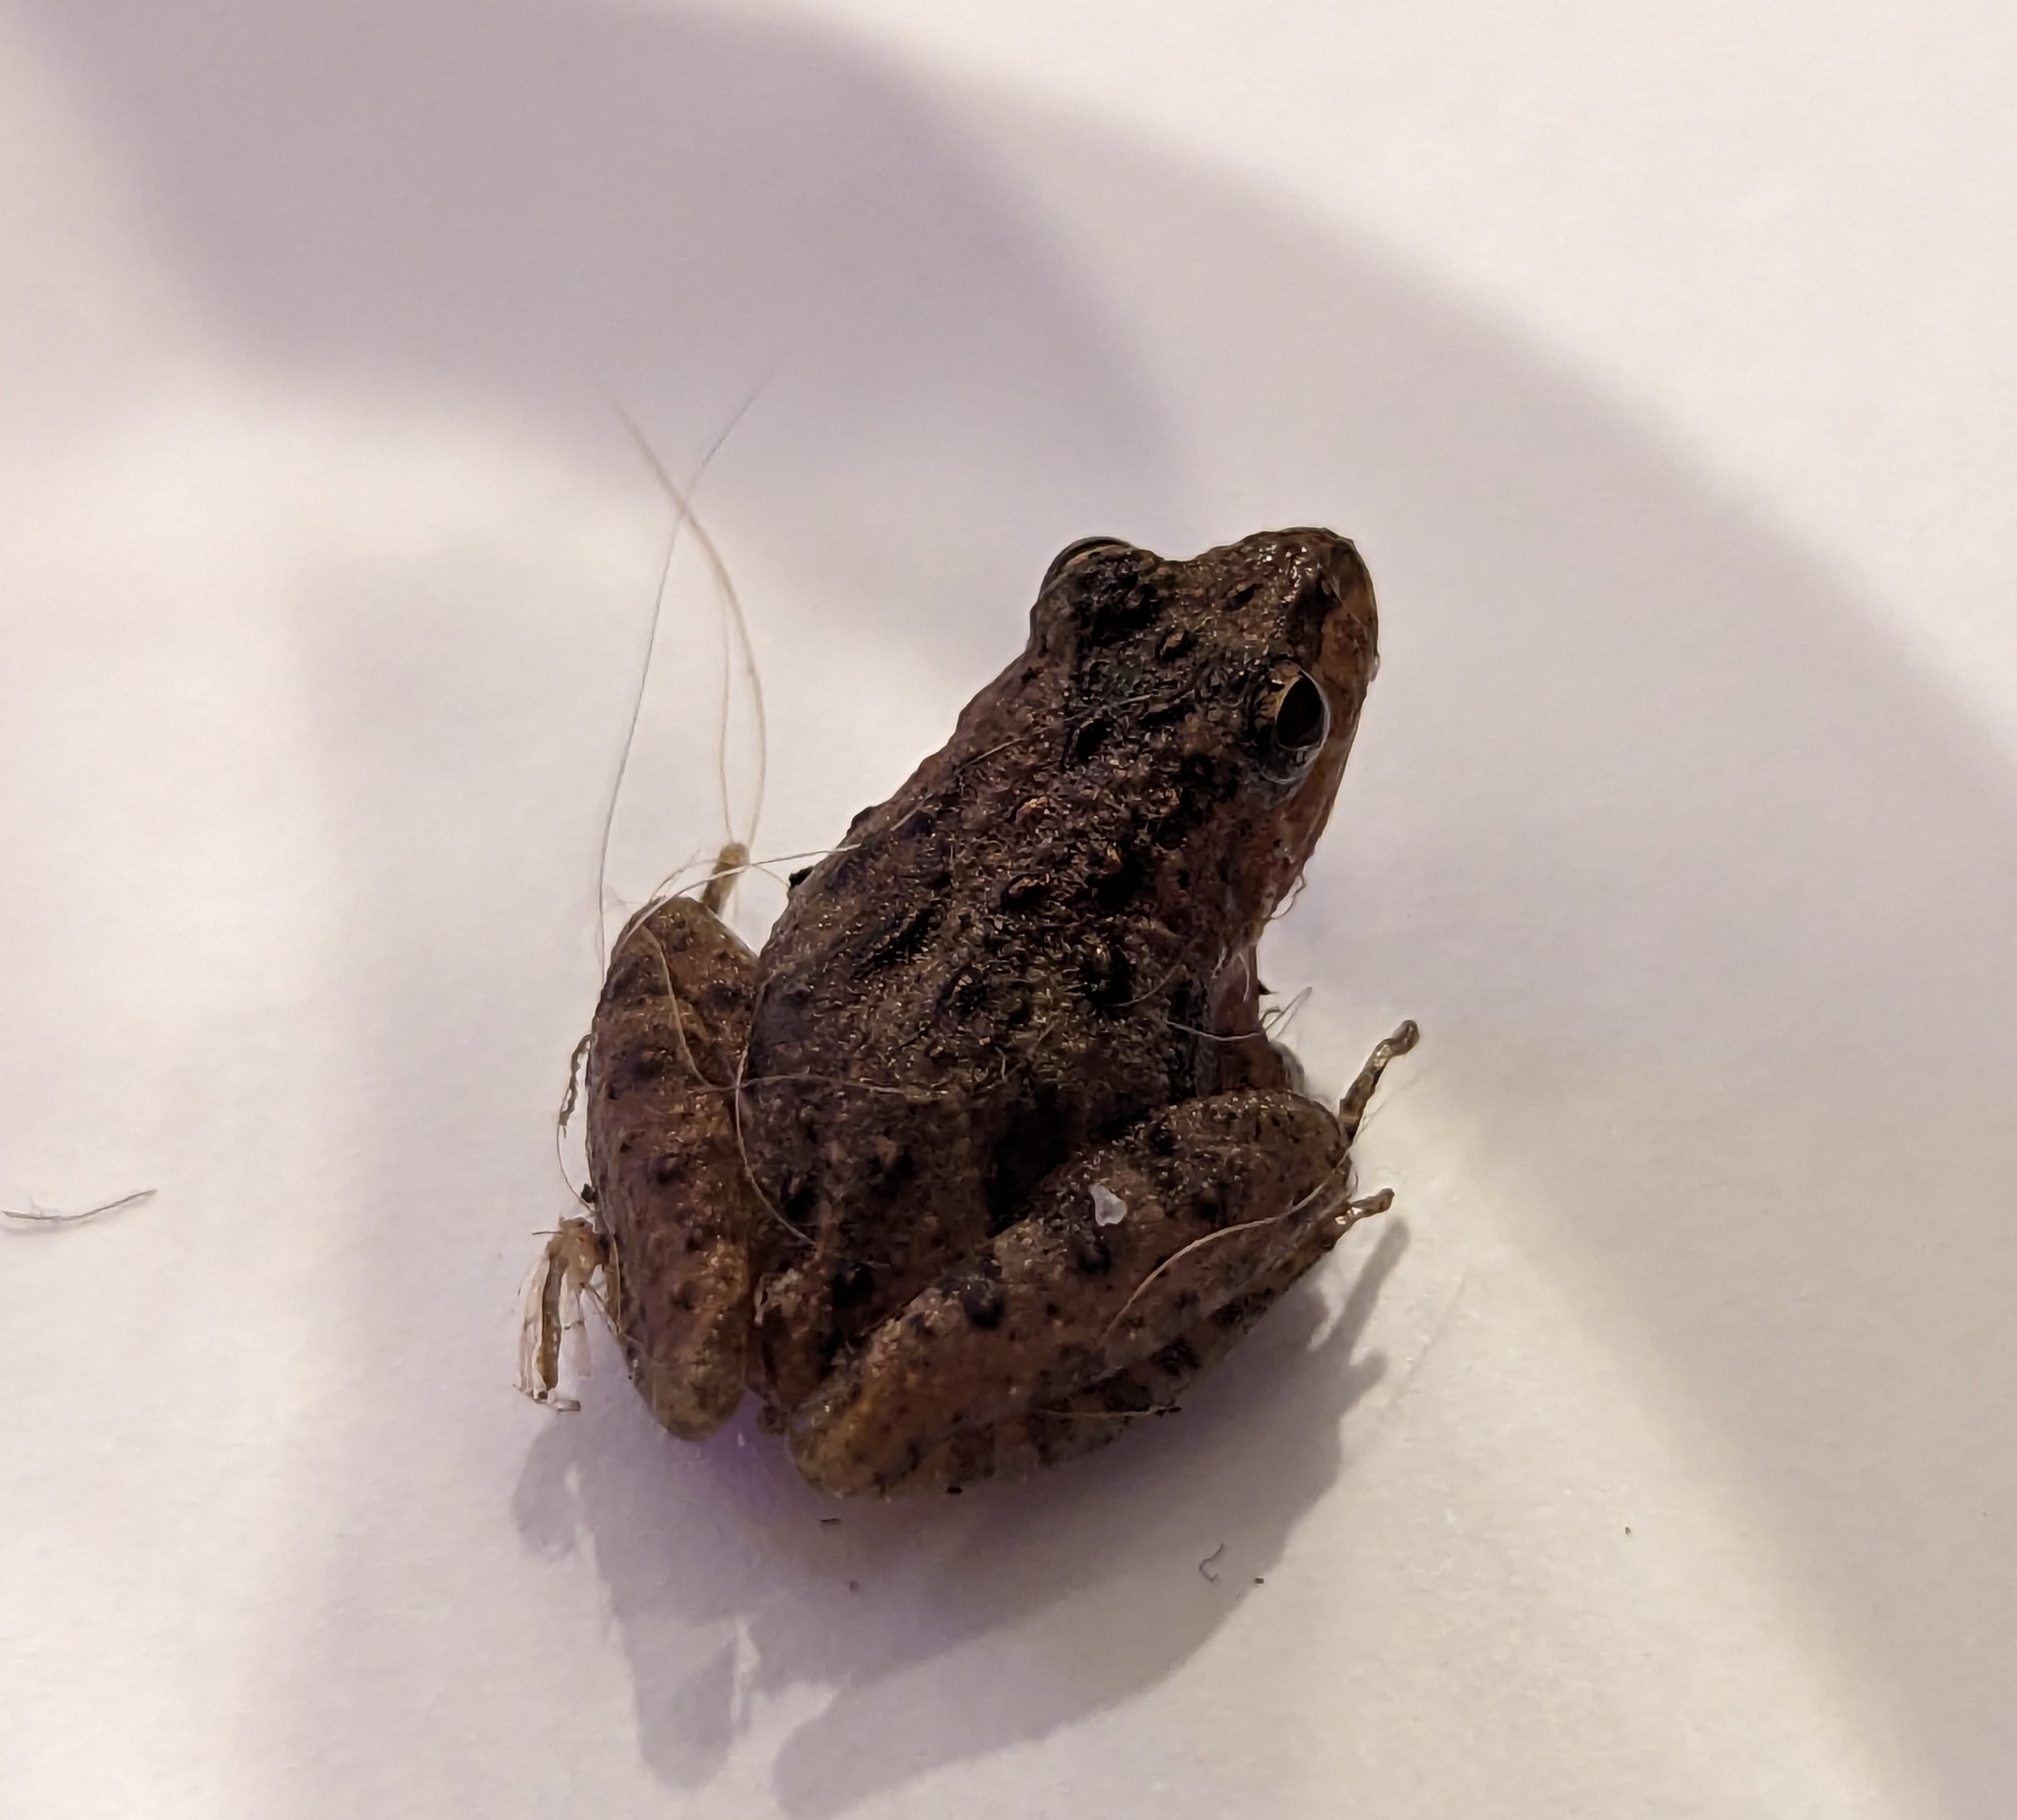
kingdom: Animalia
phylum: Chordata
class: Amphibia
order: Anura
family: Hylidae
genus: Acris
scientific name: Acris gryllus
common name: Southern cricket frog
